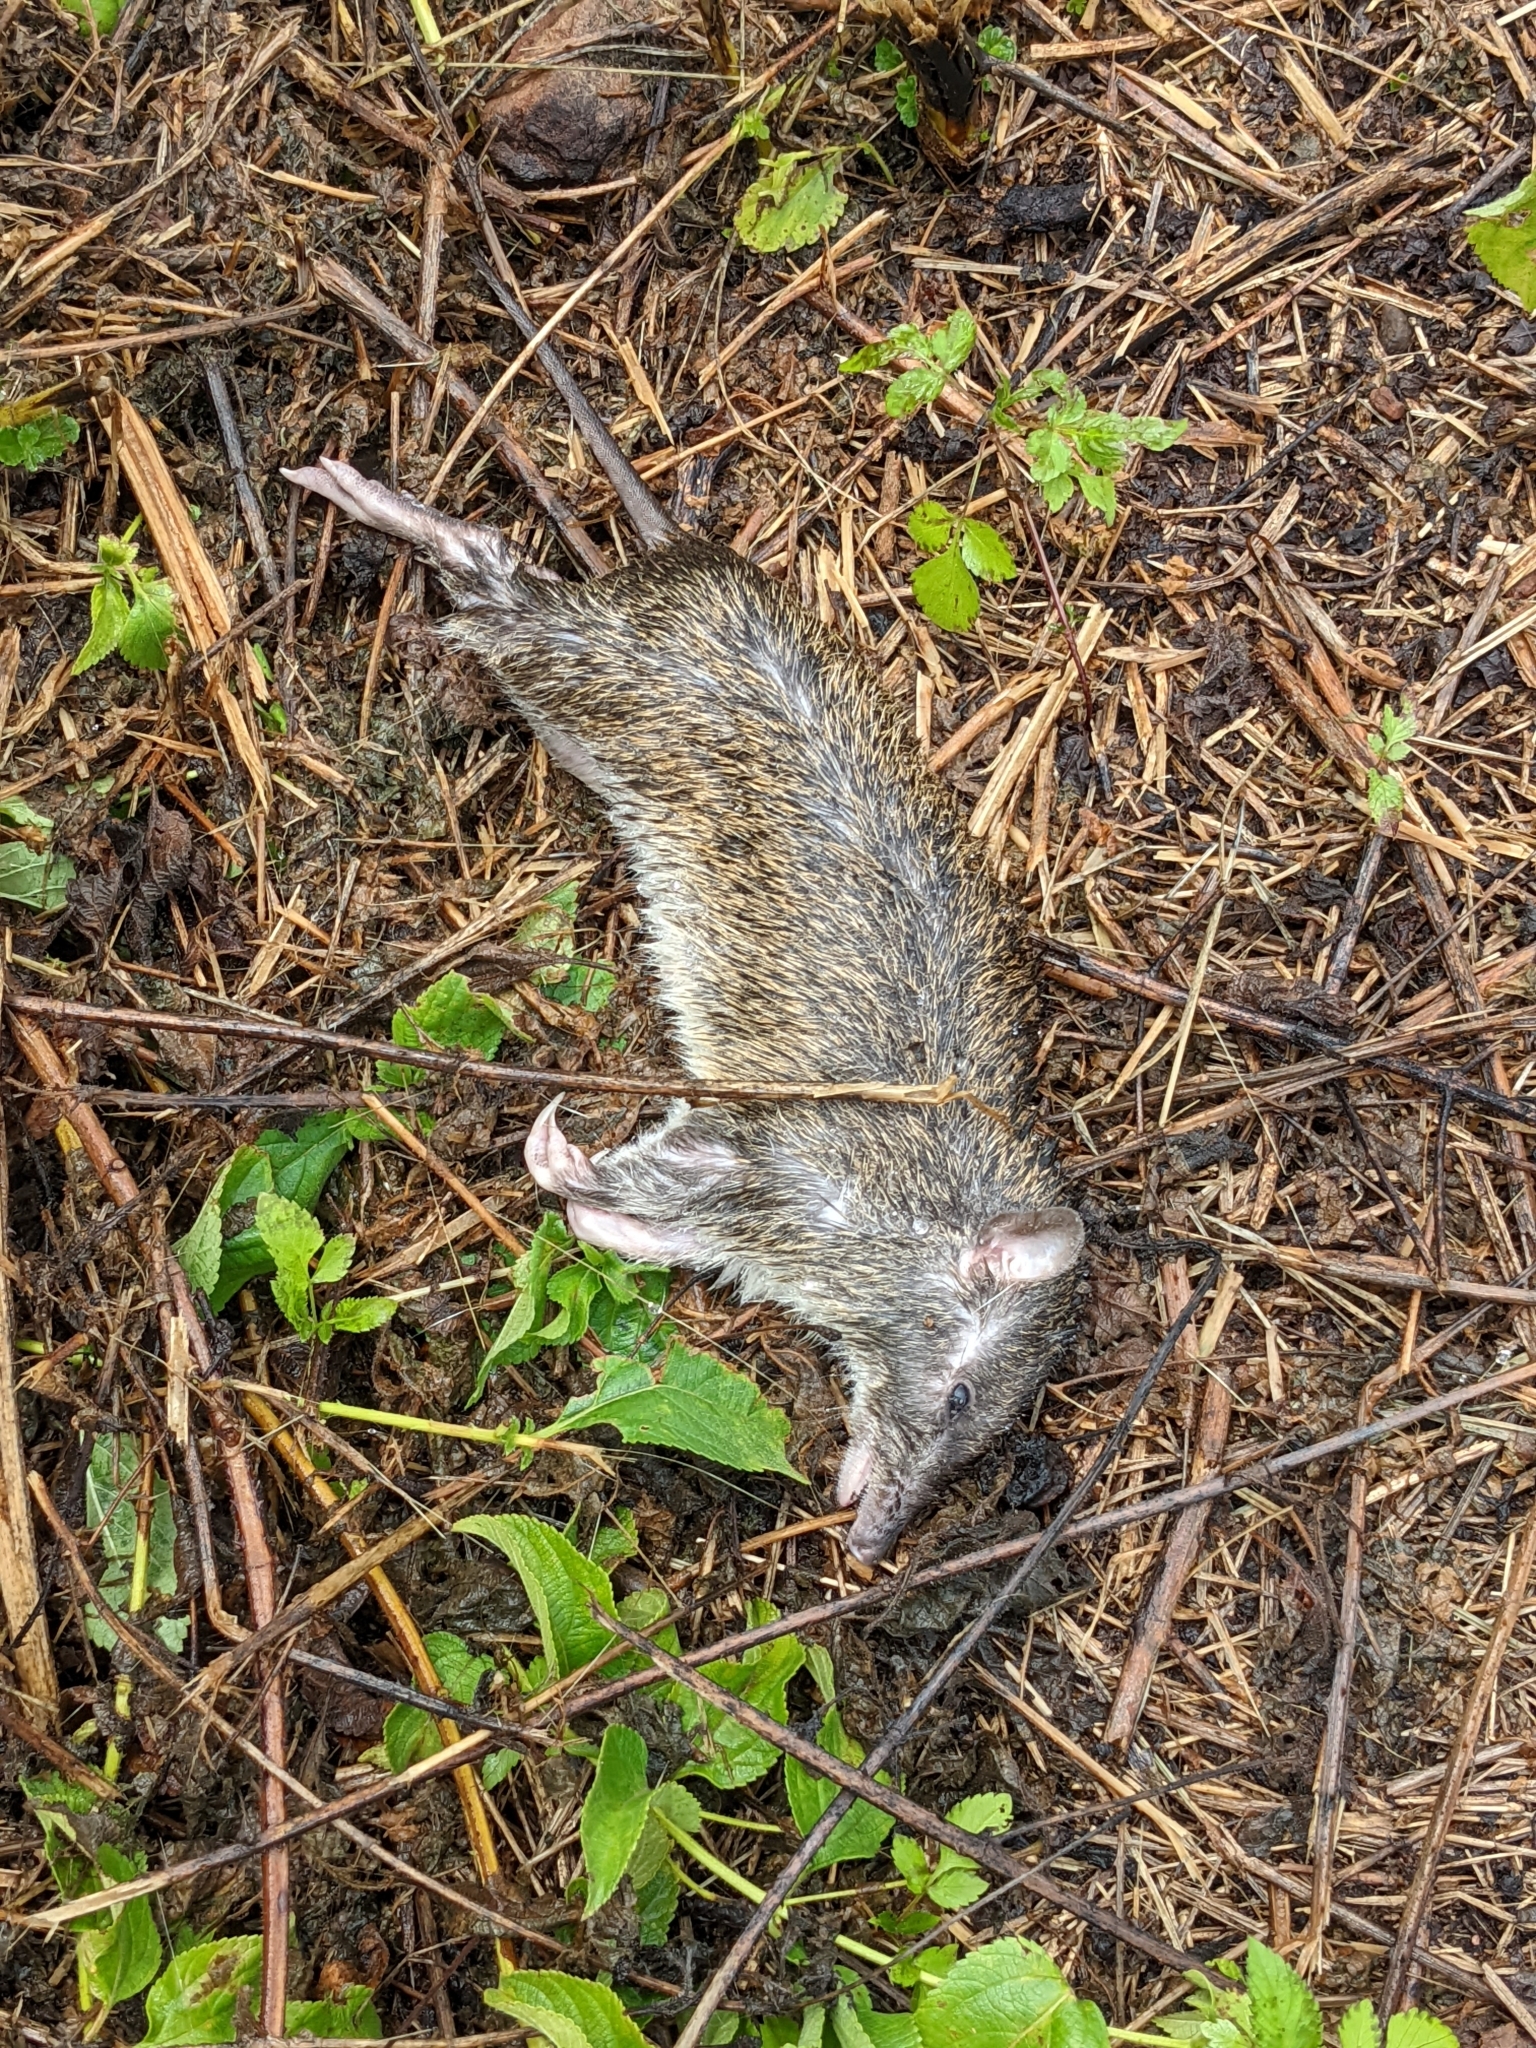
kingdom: Animalia
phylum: Chordata
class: Mammalia
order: Peramelemorphia
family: Peramelidae
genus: Isoodon
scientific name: Isoodon macrourus
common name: Northern brown bandicoot
